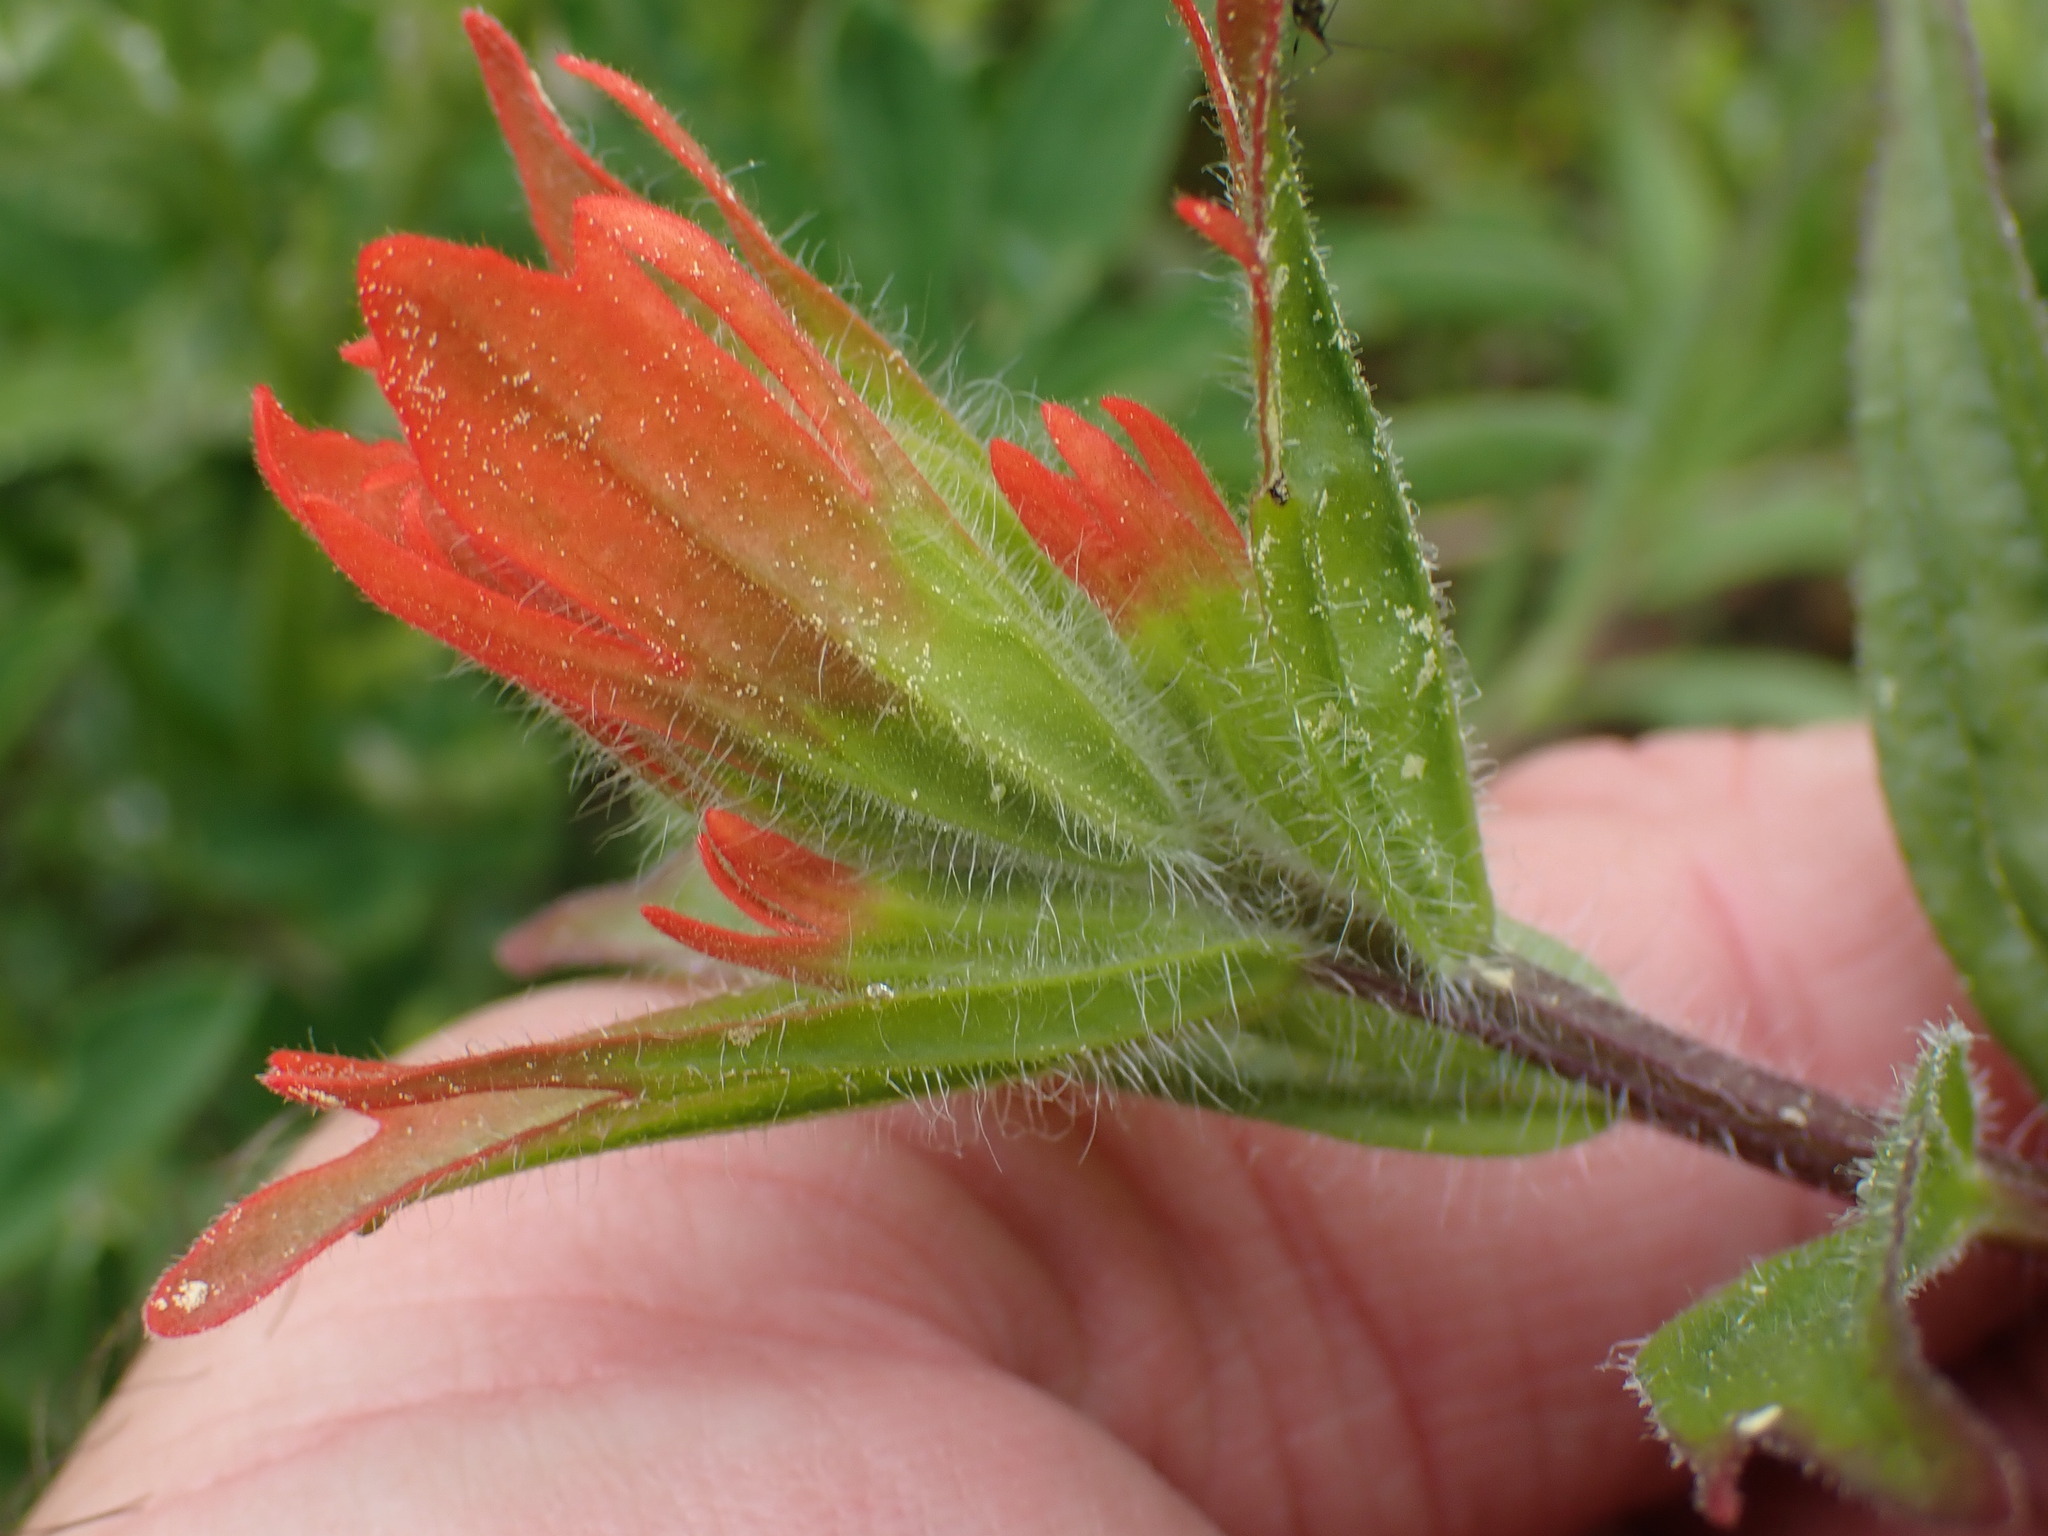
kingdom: Plantae
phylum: Tracheophyta
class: Magnoliopsida
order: Lamiales
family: Orobanchaceae
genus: Castilleja
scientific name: Castilleja miniata
